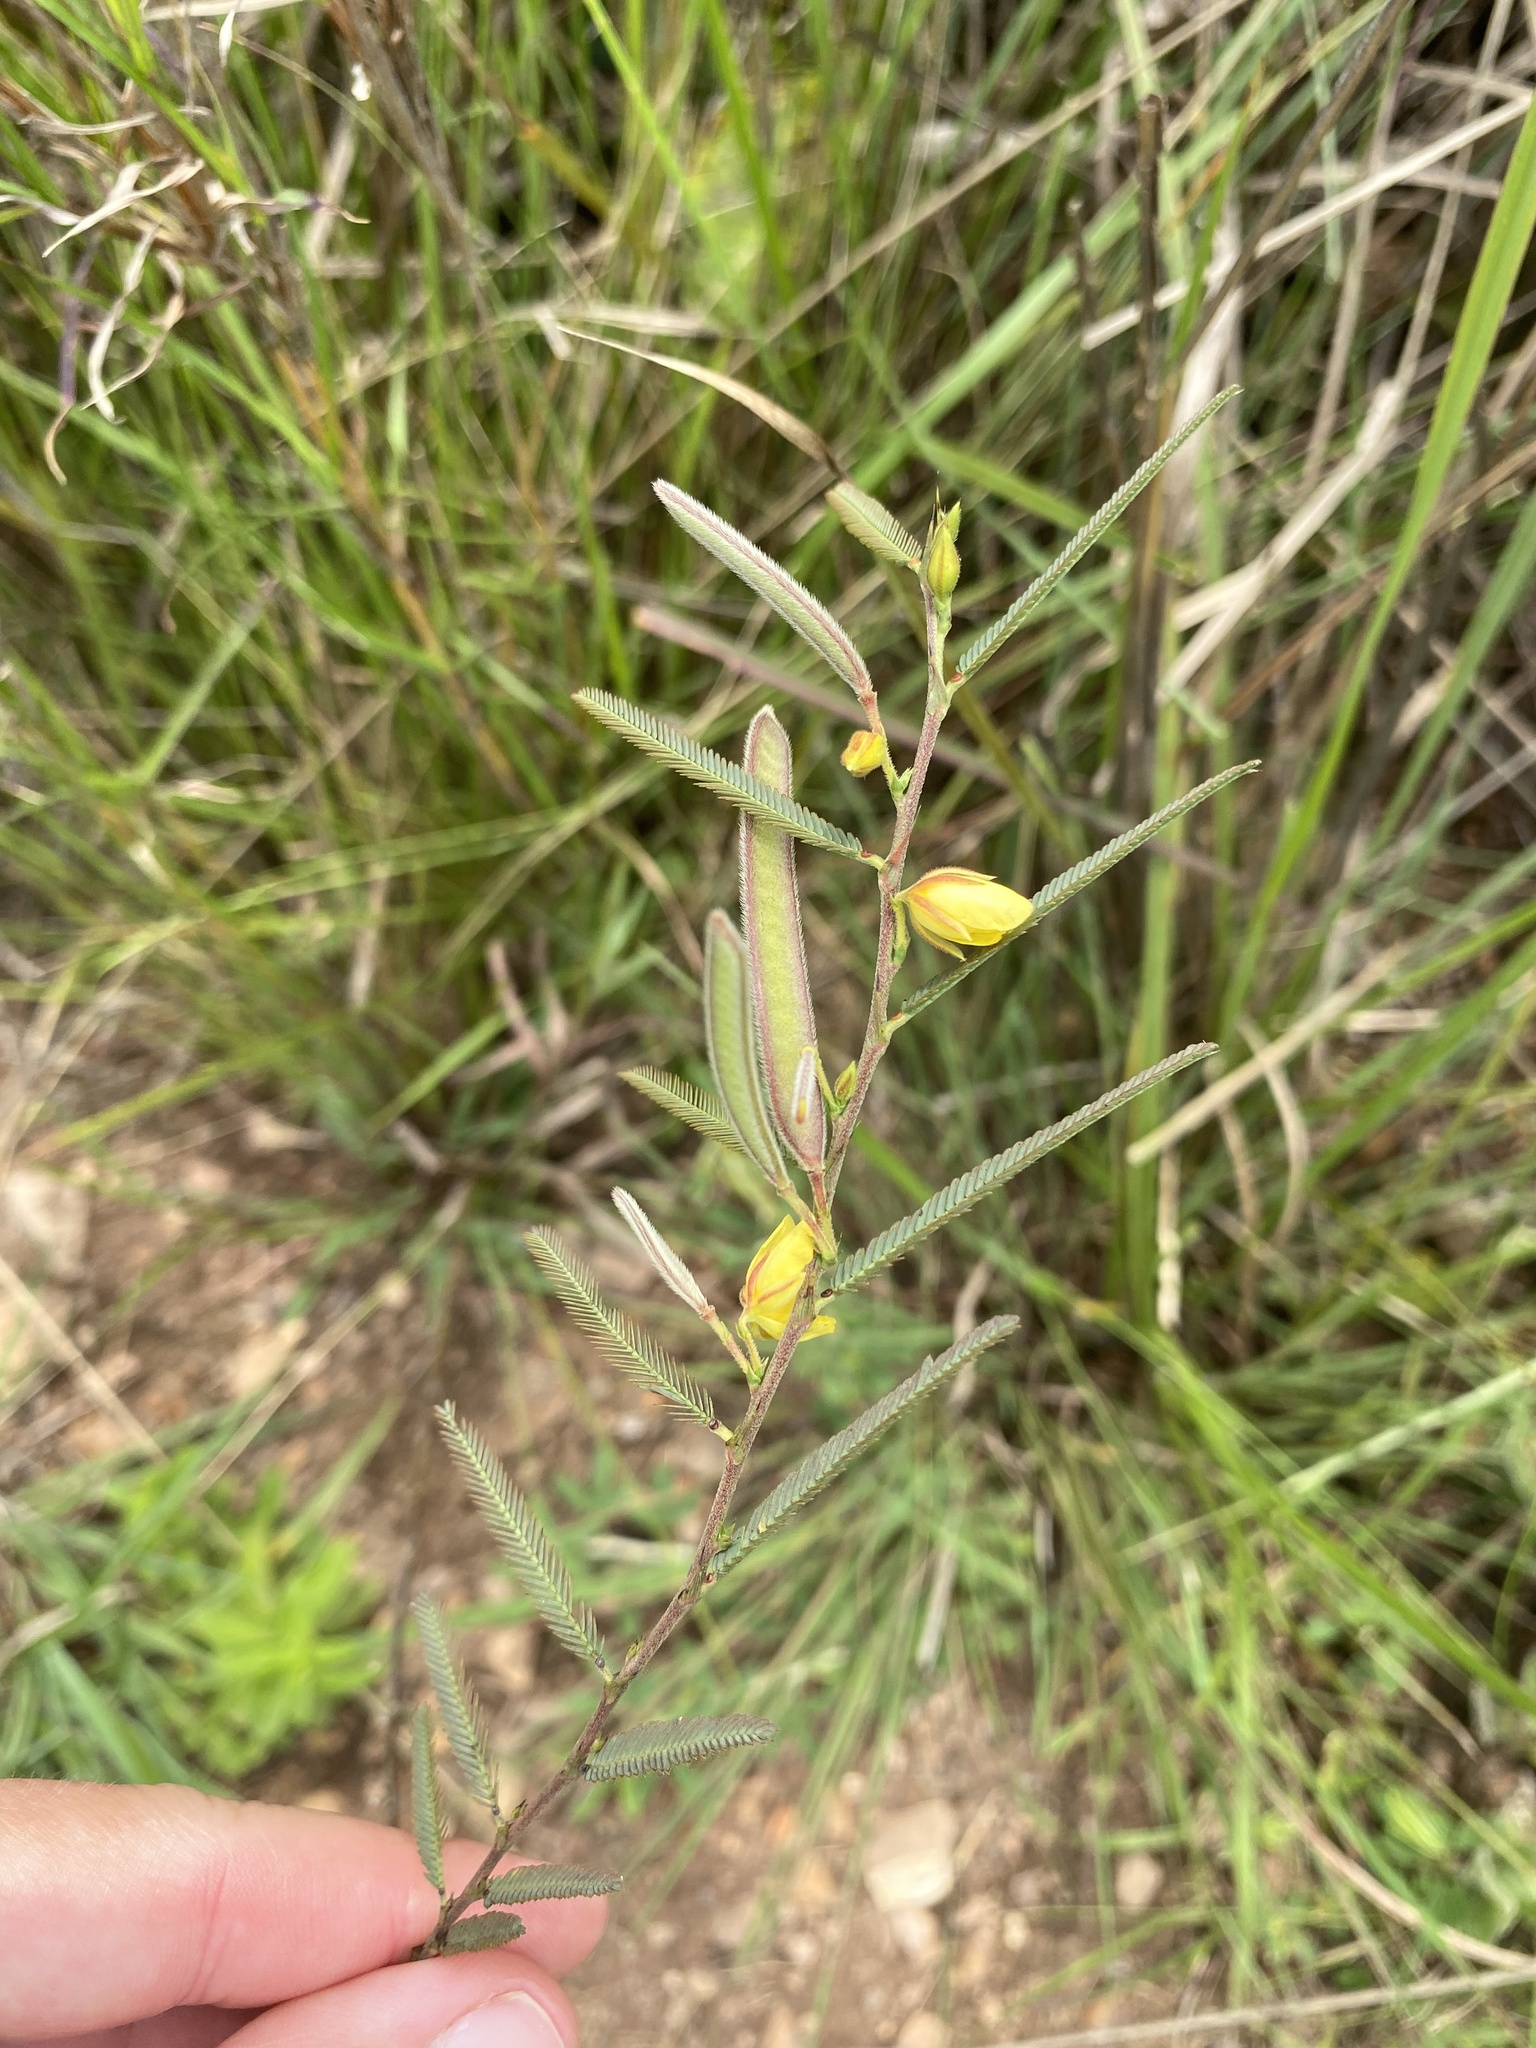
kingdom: Plantae
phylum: Tracheophyta
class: Magnoliopsida
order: Fabales
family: Fabaceae
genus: Chamaecrista
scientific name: Chamaecrista comosa
